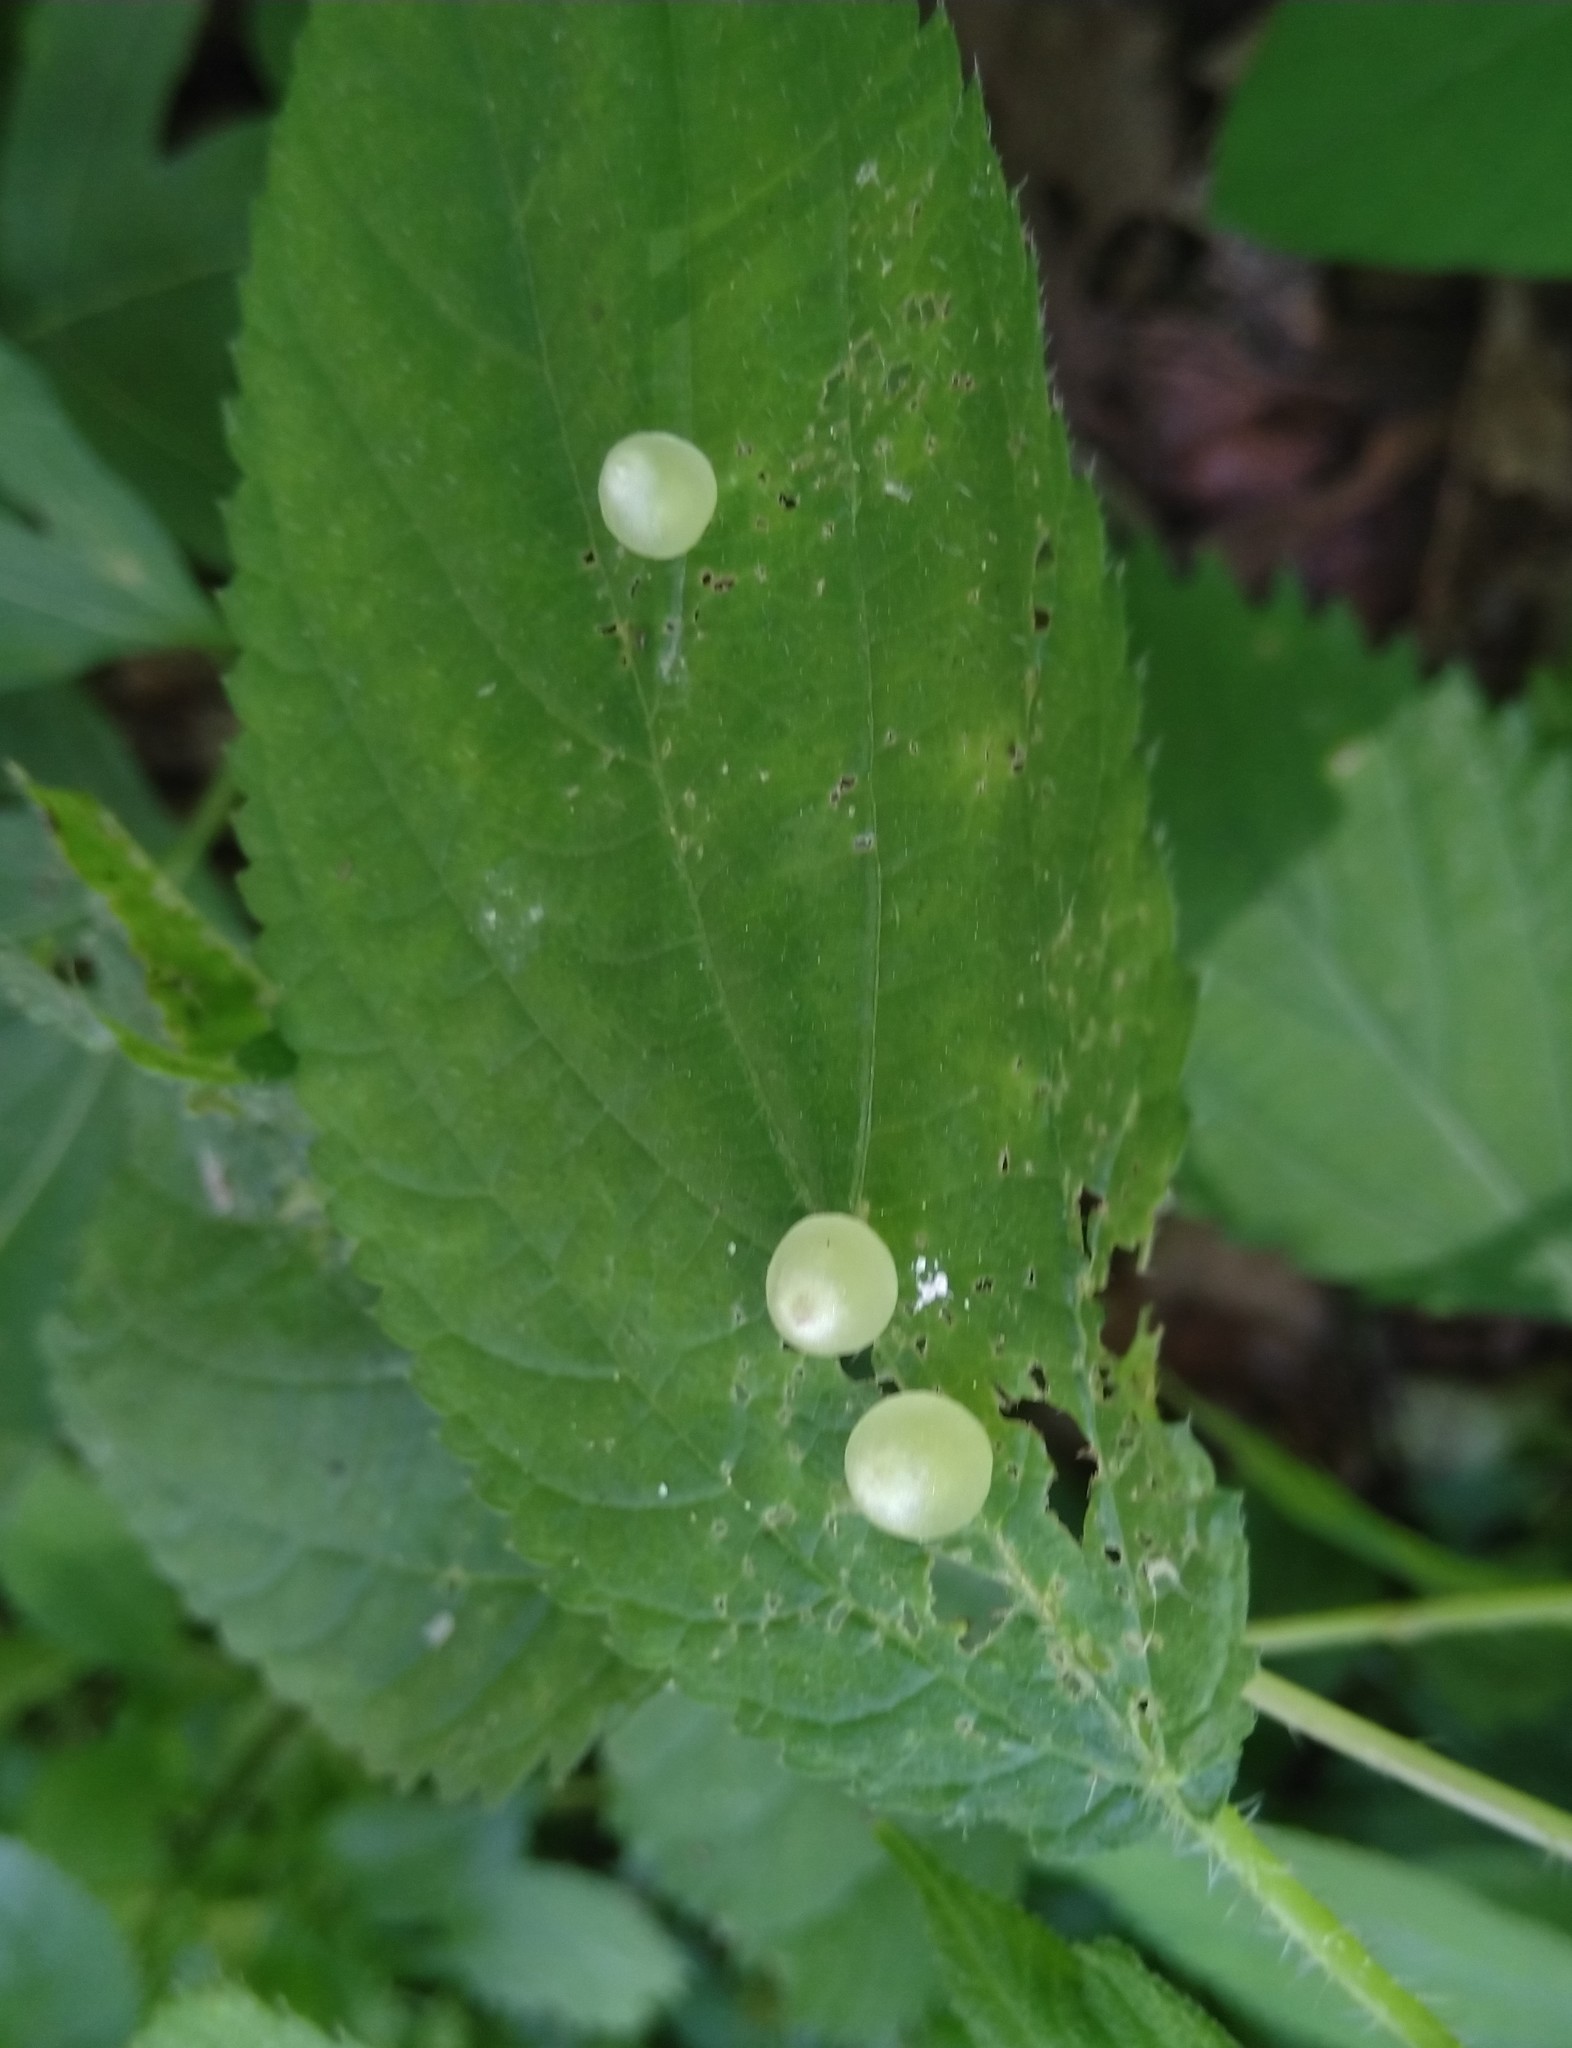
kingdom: Animalia
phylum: Arthropoda
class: Insecta
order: Diptera
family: Cecidomyiidae
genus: Dasineura
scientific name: Dasineura investita
